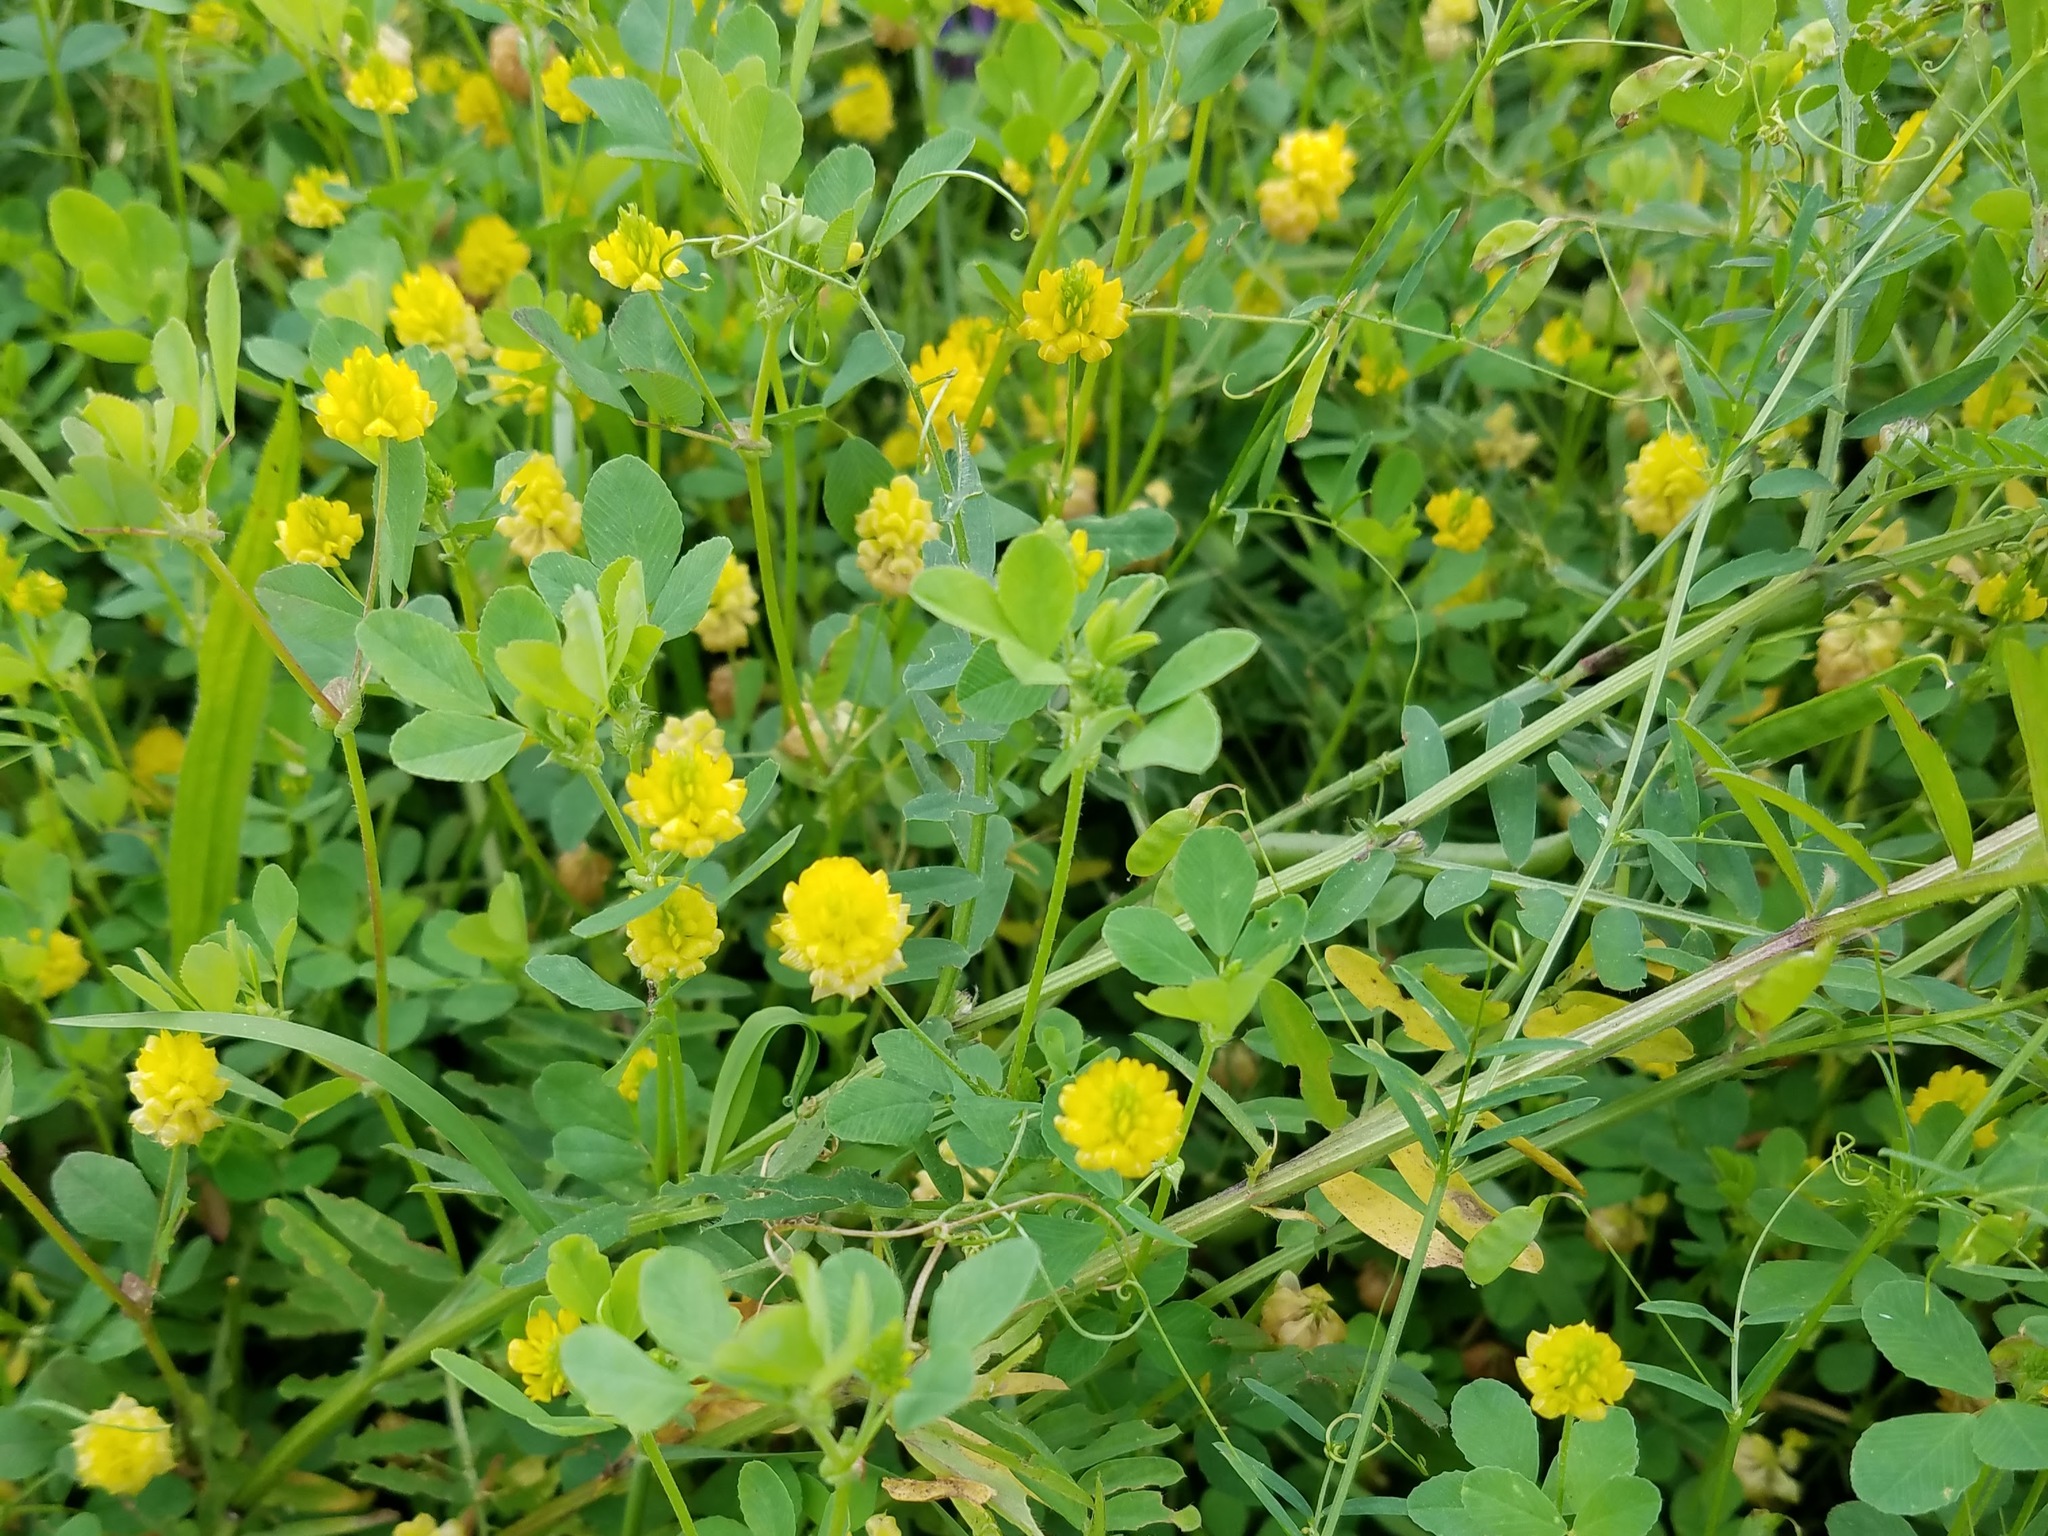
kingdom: Plantae
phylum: Tracheophyta
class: Magnoliopsida
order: Fabales
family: Fabaceae
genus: Trifolium
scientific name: Trifolium campestre
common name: Field clover
